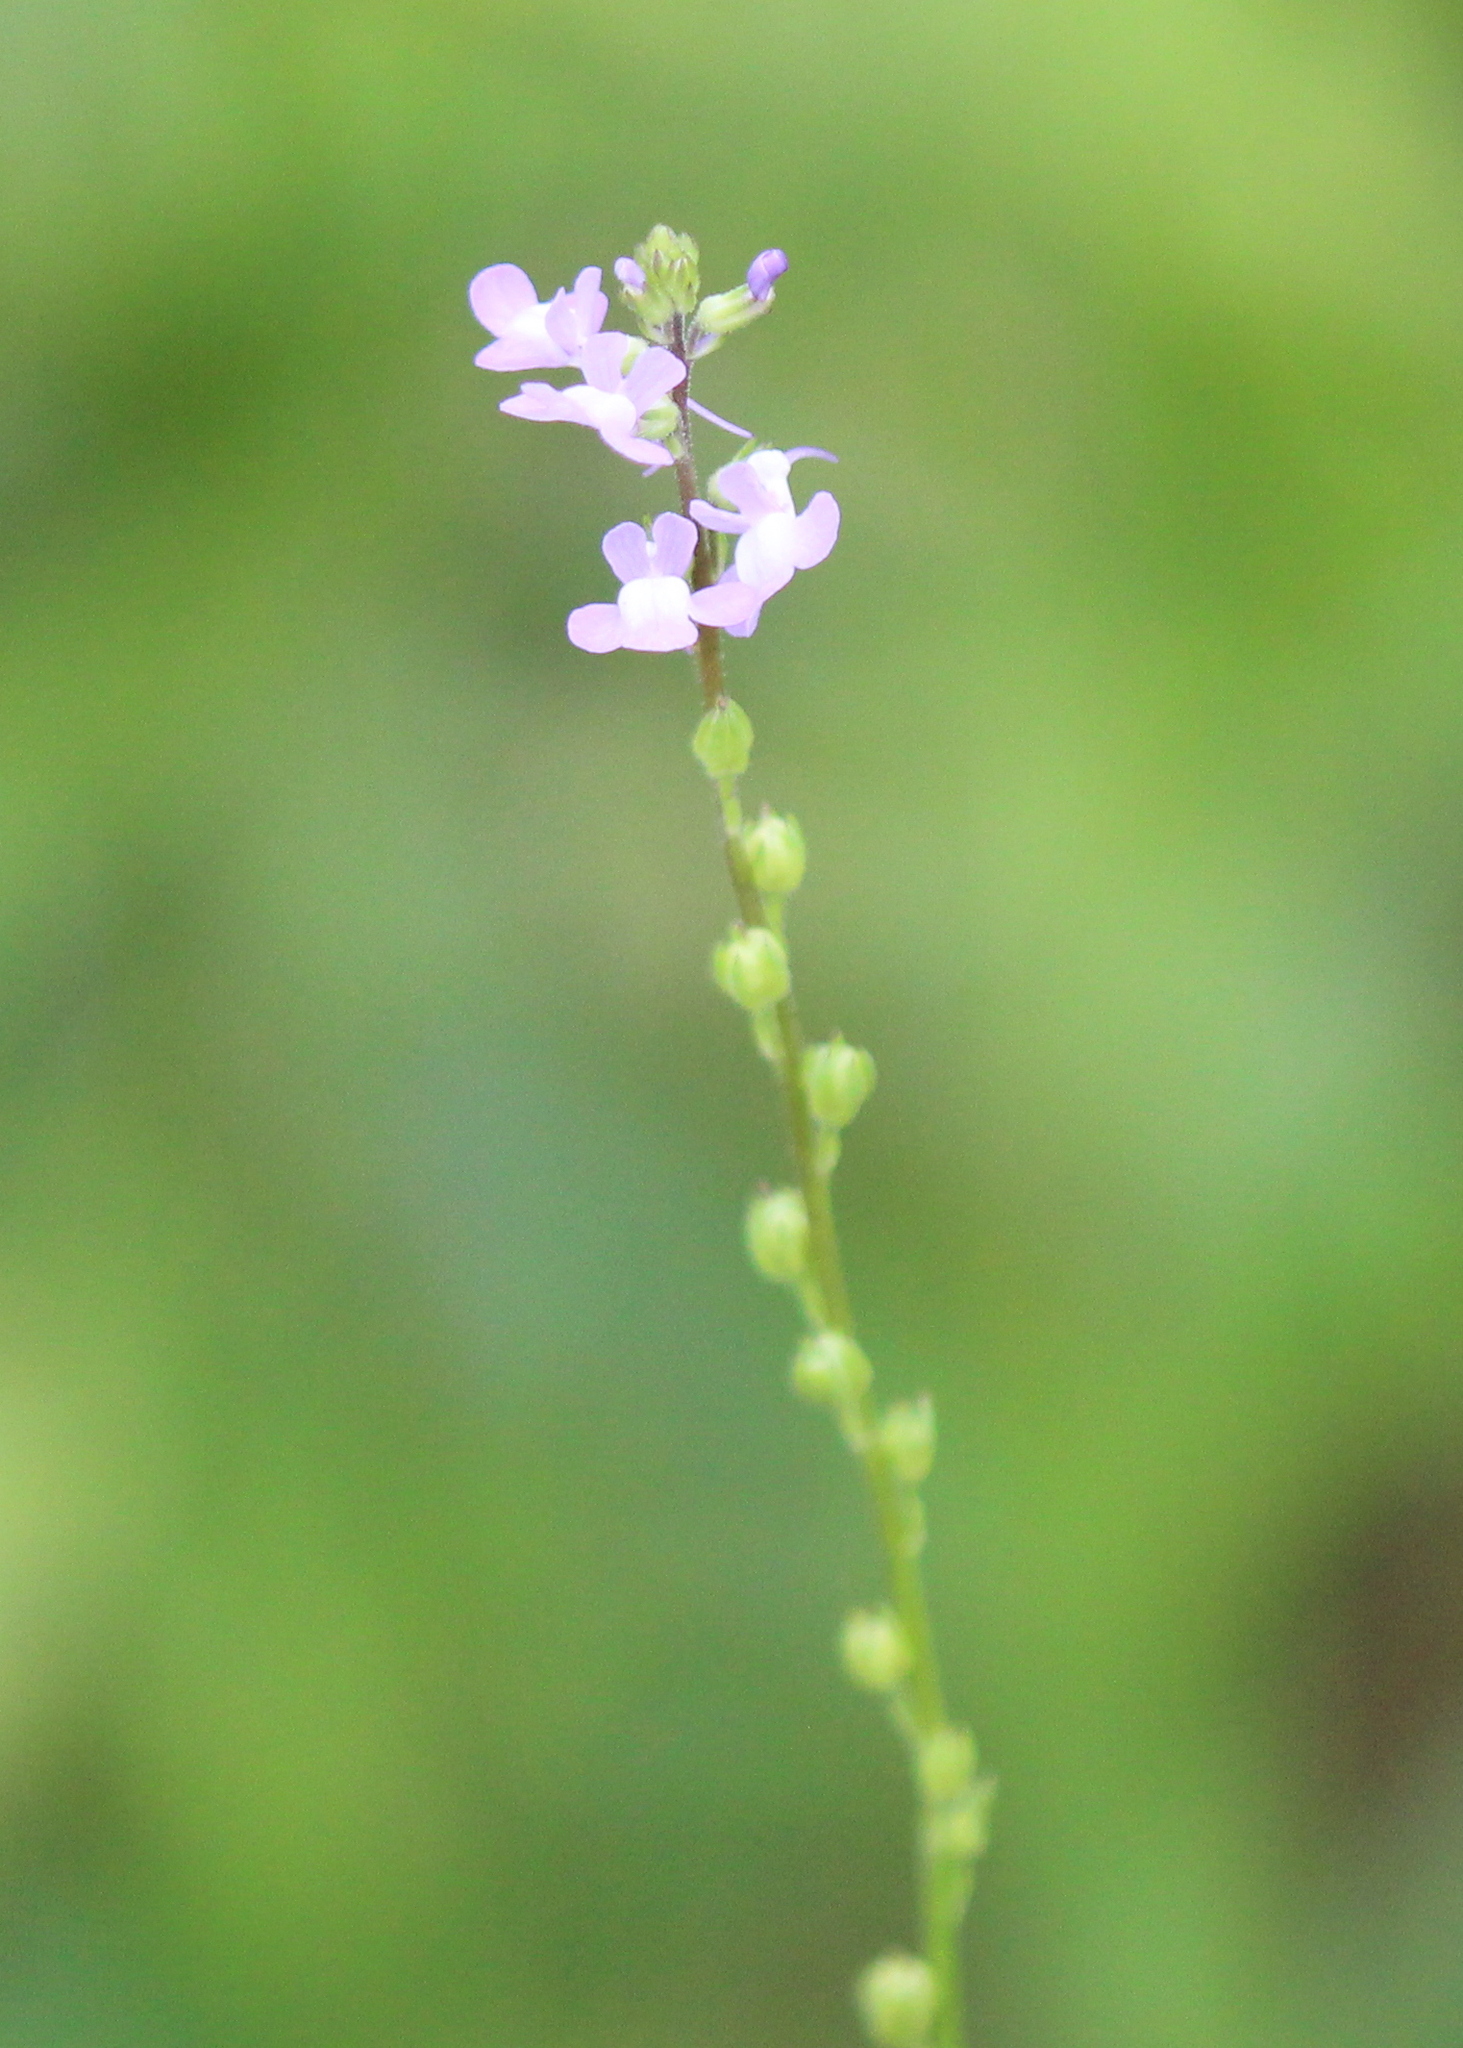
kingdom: Plantae
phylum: Tracheophyta
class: Magnoliopsida
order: Lamiales
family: Plantaginaceae
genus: Nuttallanthus
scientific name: Nuttallanthus canadensis
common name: Blue toadflax
